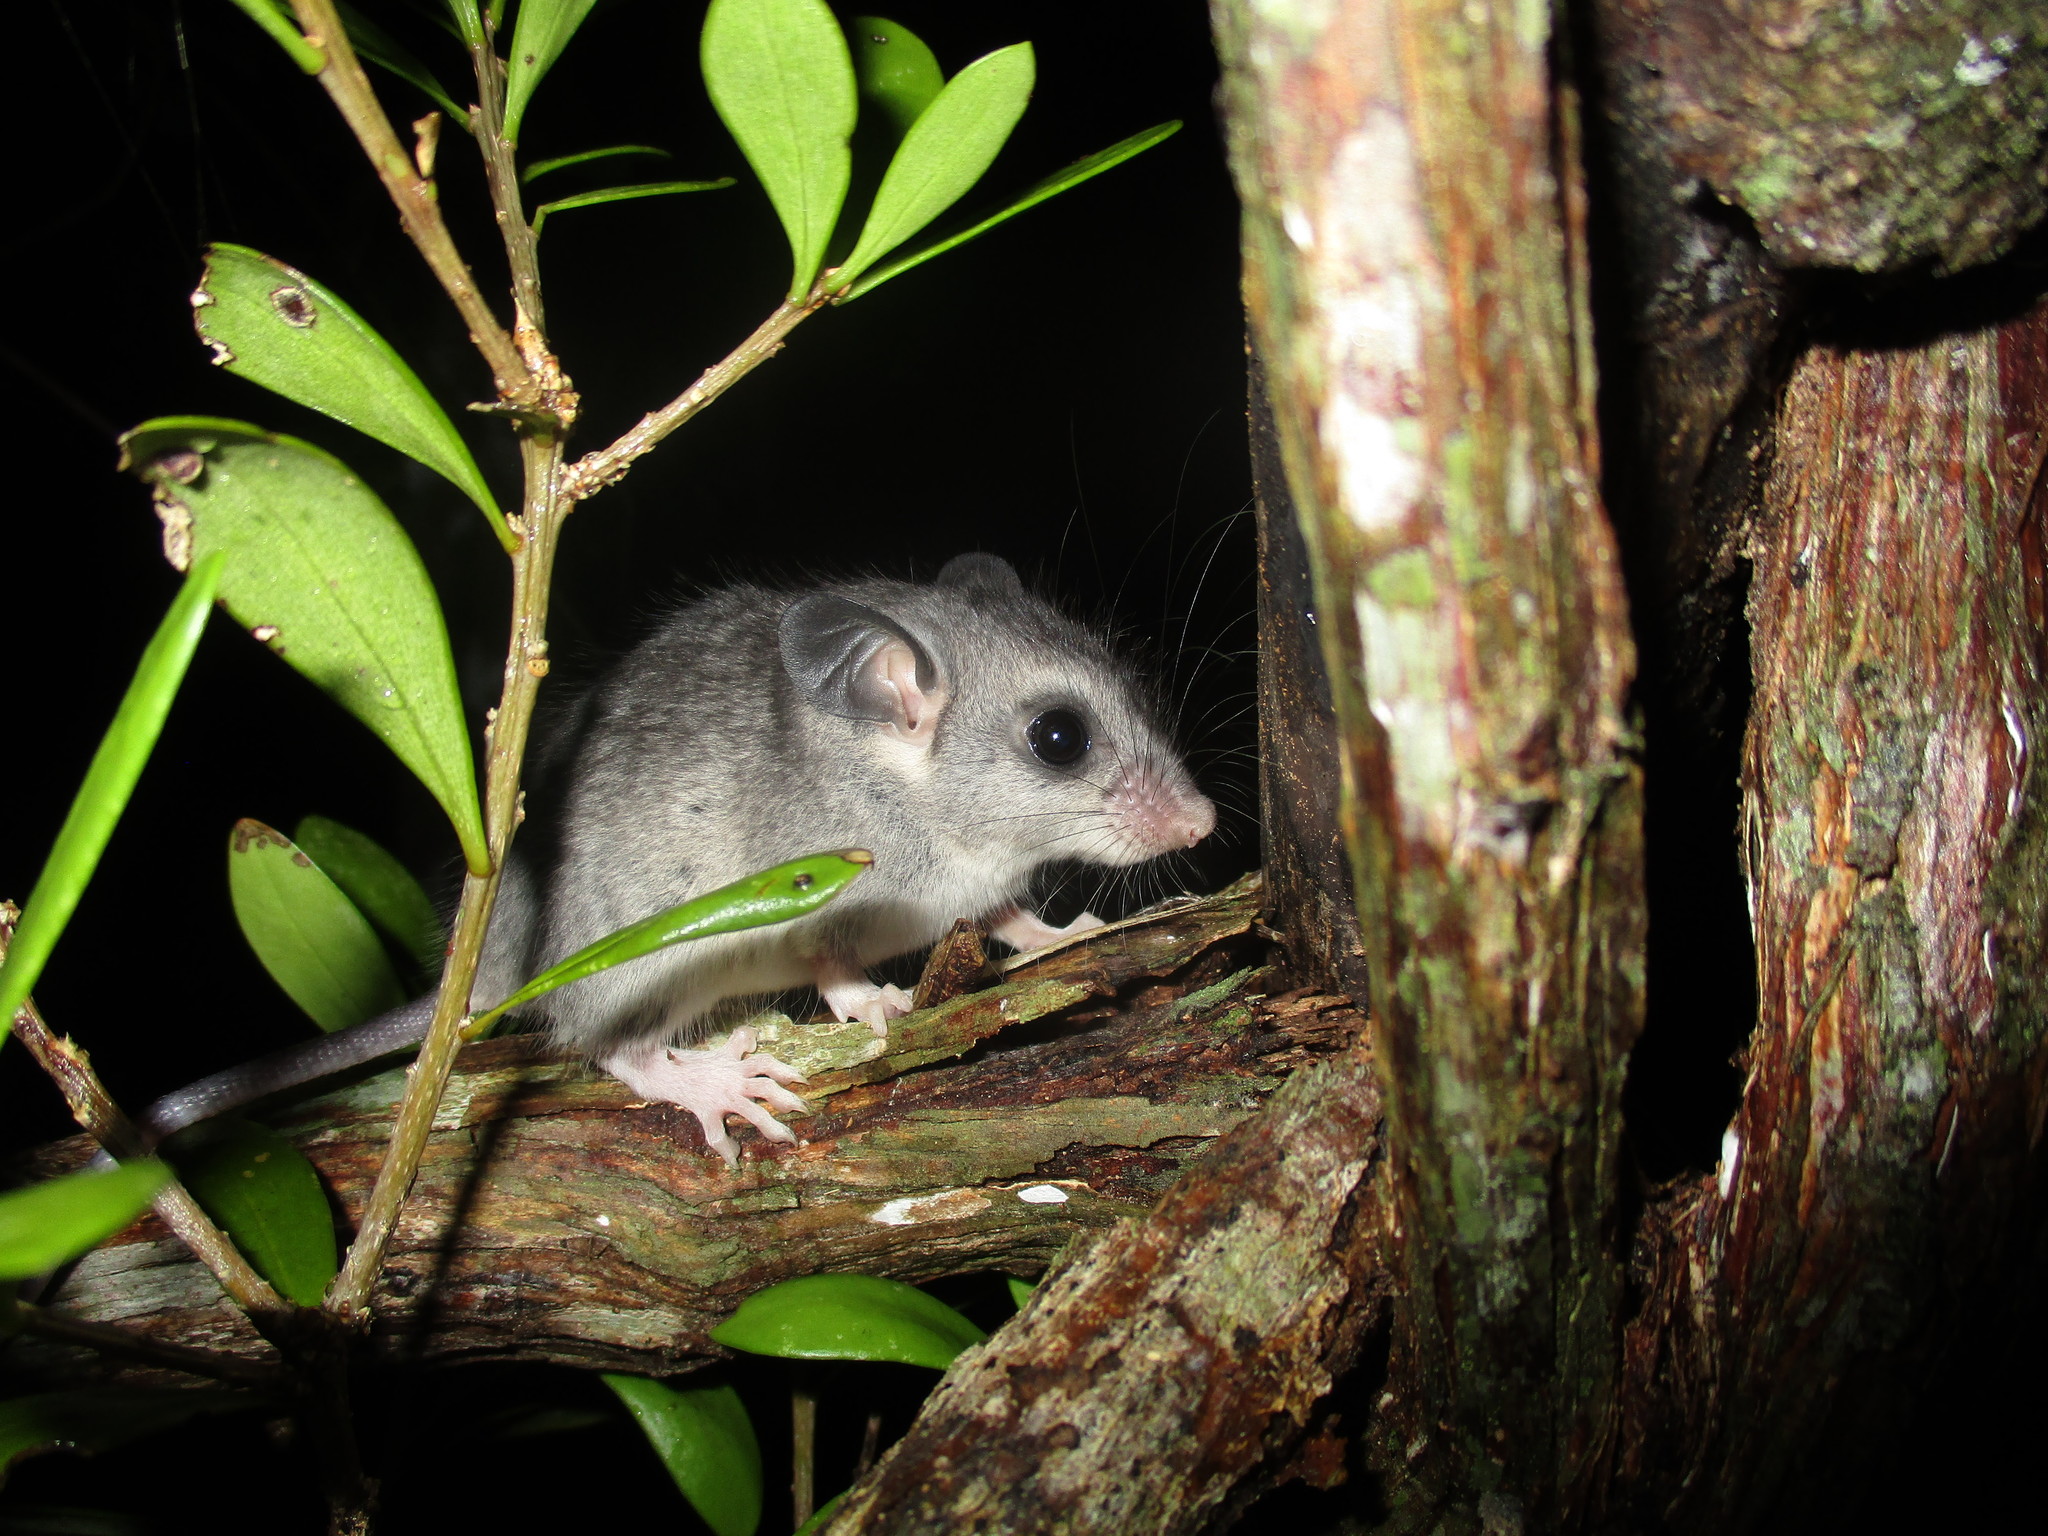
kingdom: Animalia
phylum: Chordata
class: Mammalia
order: Rodentia
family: Cricetidae
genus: Ototylomys
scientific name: Ototylomys phyllotis
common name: Big-eared climbing rat
